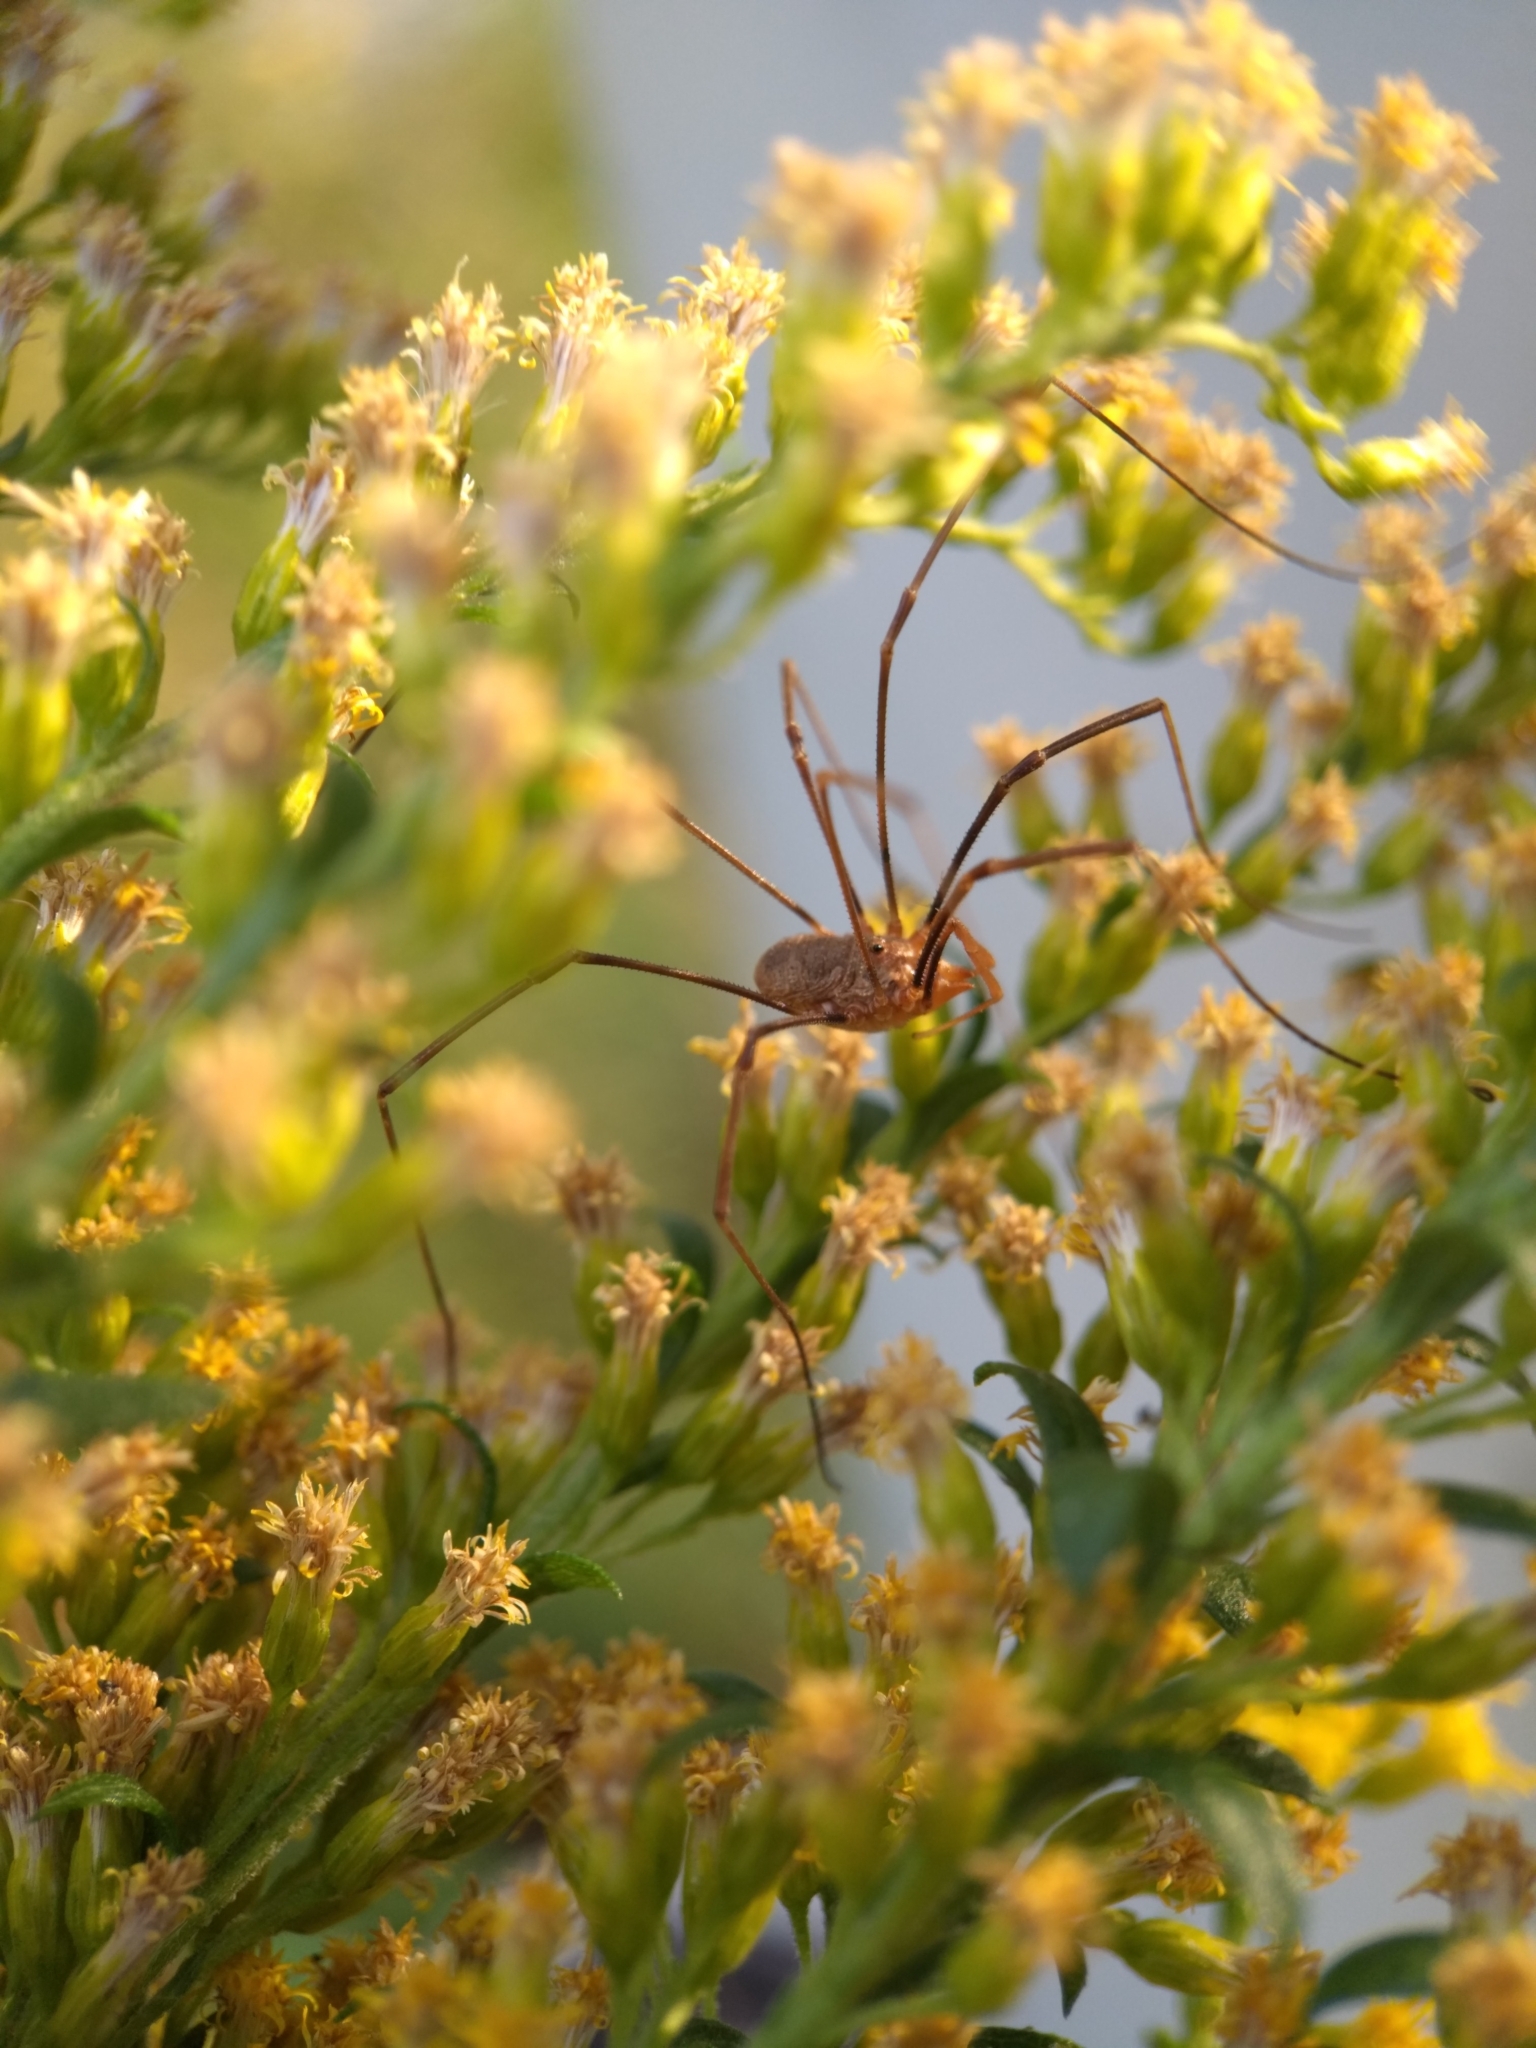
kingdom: Animalia
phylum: Arthropoda
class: Arachnida
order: Opiliones
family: Phalangiidae
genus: Phalangium
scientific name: Phalangium opilio
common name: Daddy longleg
